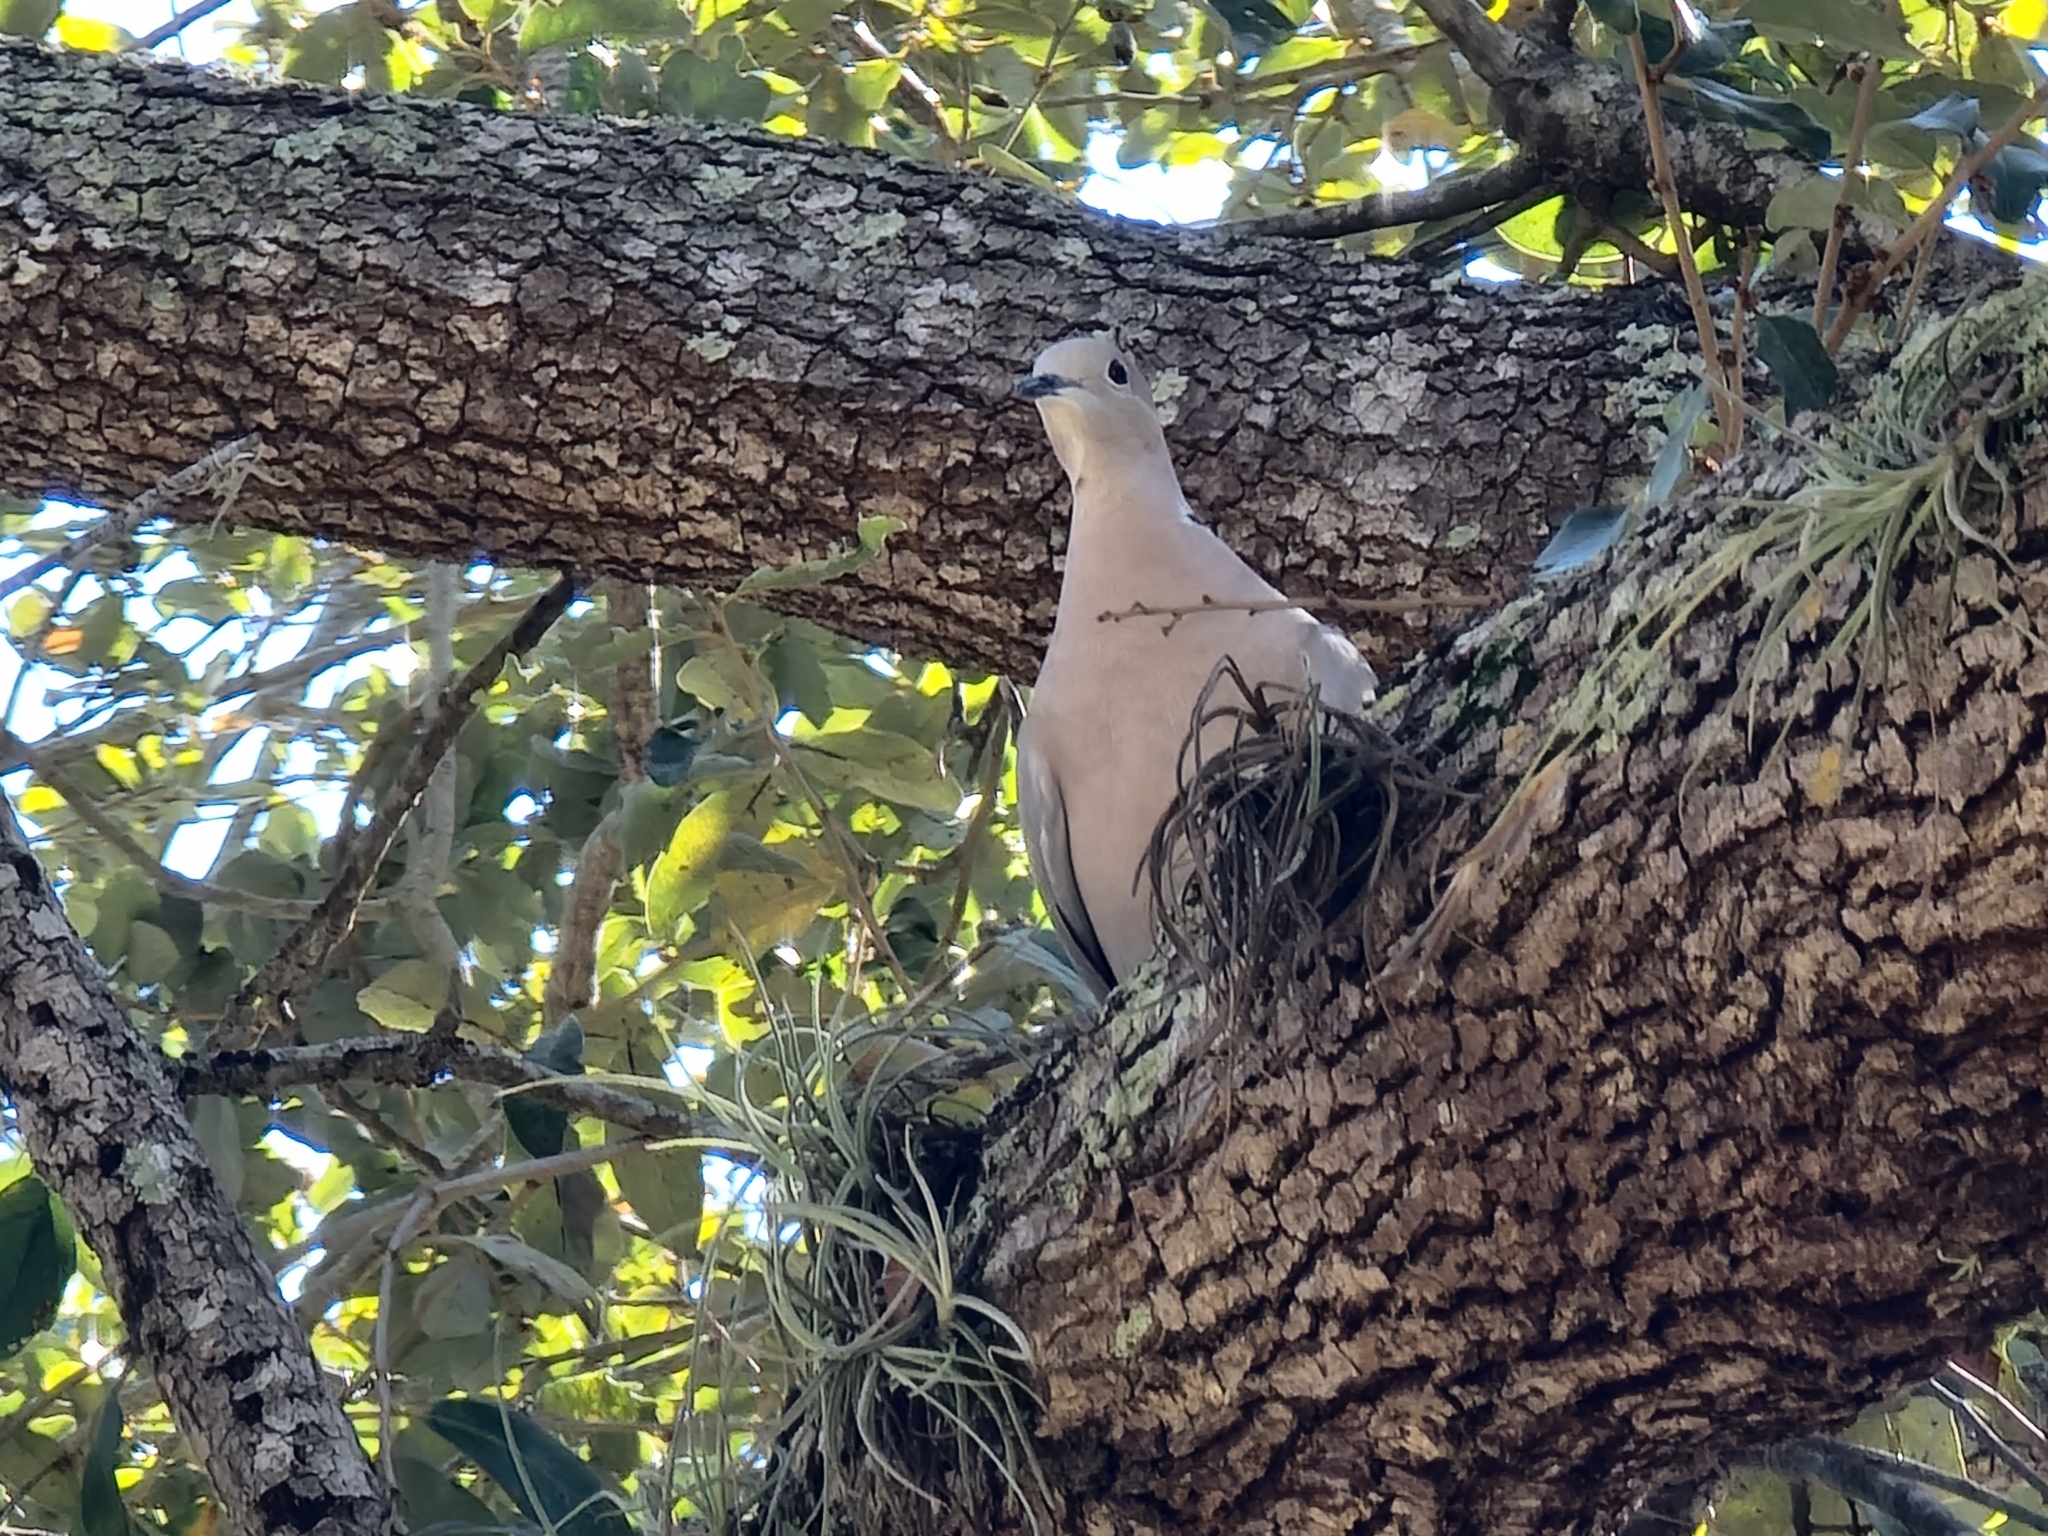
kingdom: Animalia
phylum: Chordata
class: Aves
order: Columbiformes
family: Columbidae
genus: Streptopelia
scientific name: Streptopelia decaocto
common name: Eurasian collared dove
